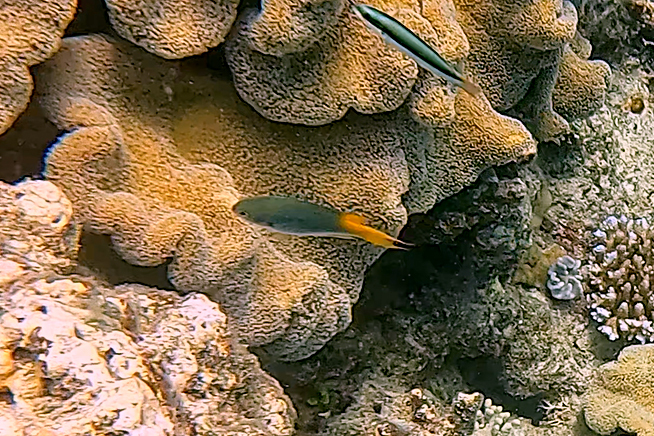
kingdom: Animalia
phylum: Chordata
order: Perciformes
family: Pomacentridae
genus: Neopomacentrus
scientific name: Neopomacentrus bankieri
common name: Chinese damsel
